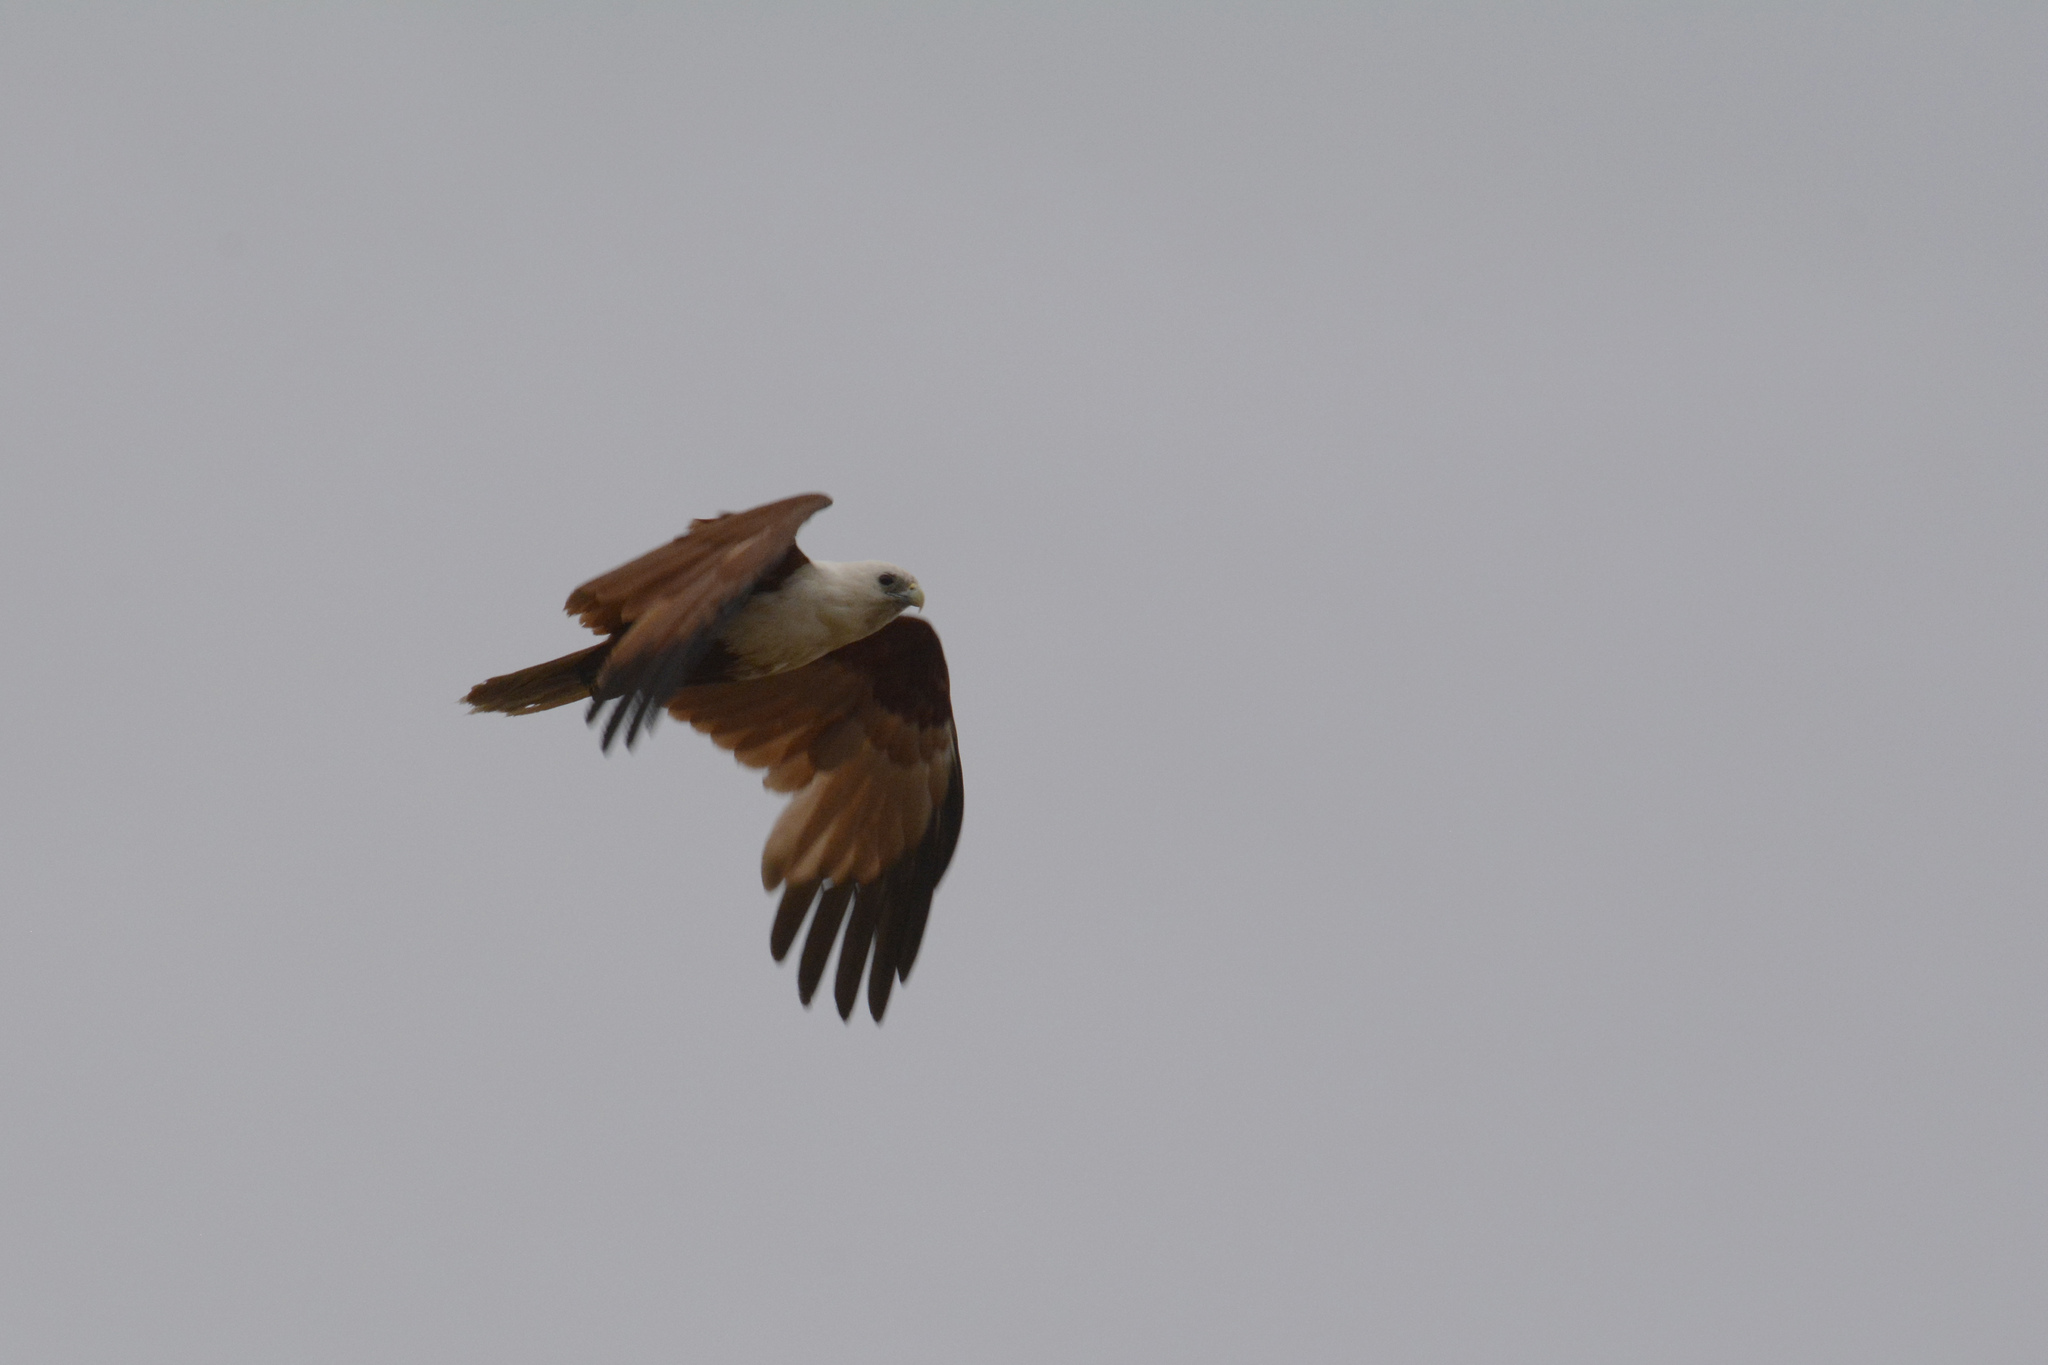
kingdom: Animalia
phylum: Chordata
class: Aves
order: Accipitriformes
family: Accipitridae
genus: Haliastur
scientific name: Haliastur indus
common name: Brahminy kite
